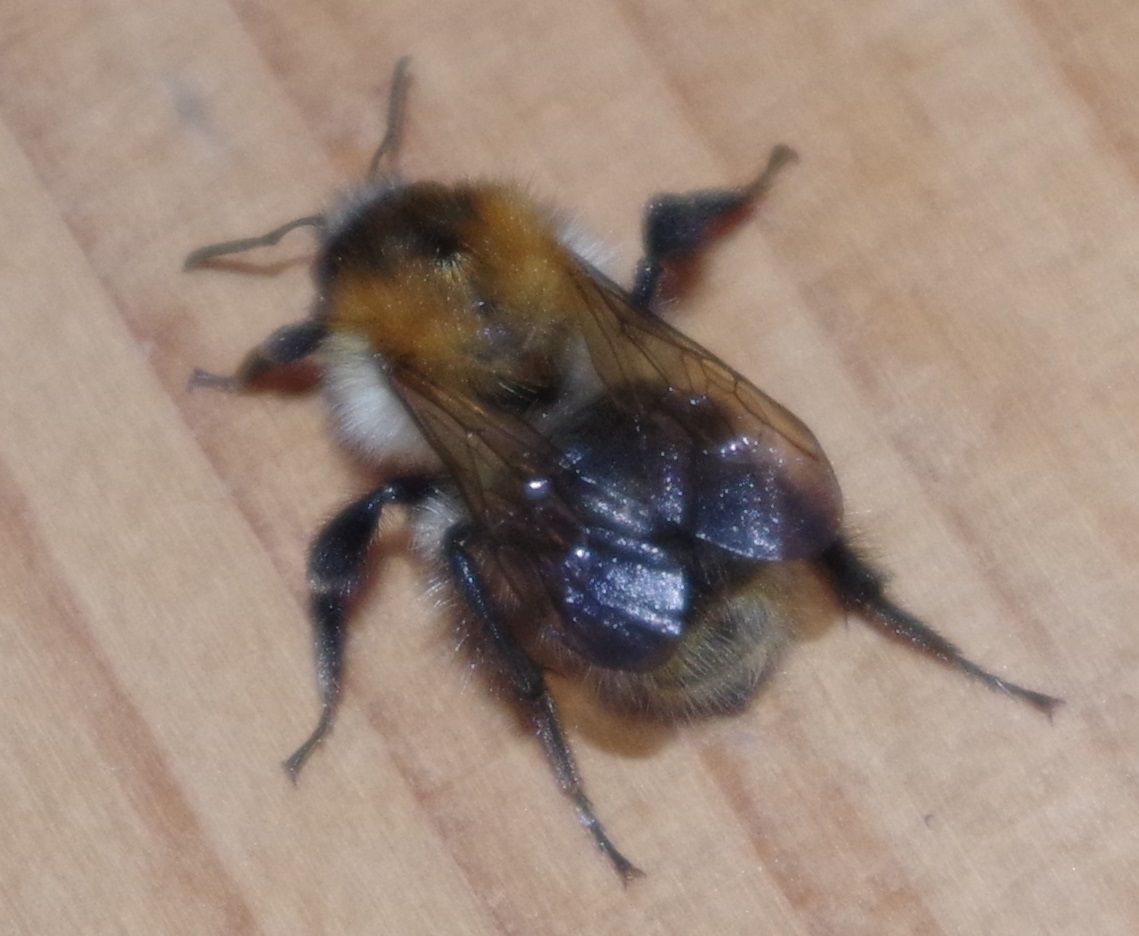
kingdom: Animalia
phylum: Arthropoda
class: Insecta
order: Hymenoptera
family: Apidae
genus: Bombus
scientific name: Bombus pascuorum
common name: Common carder bee
